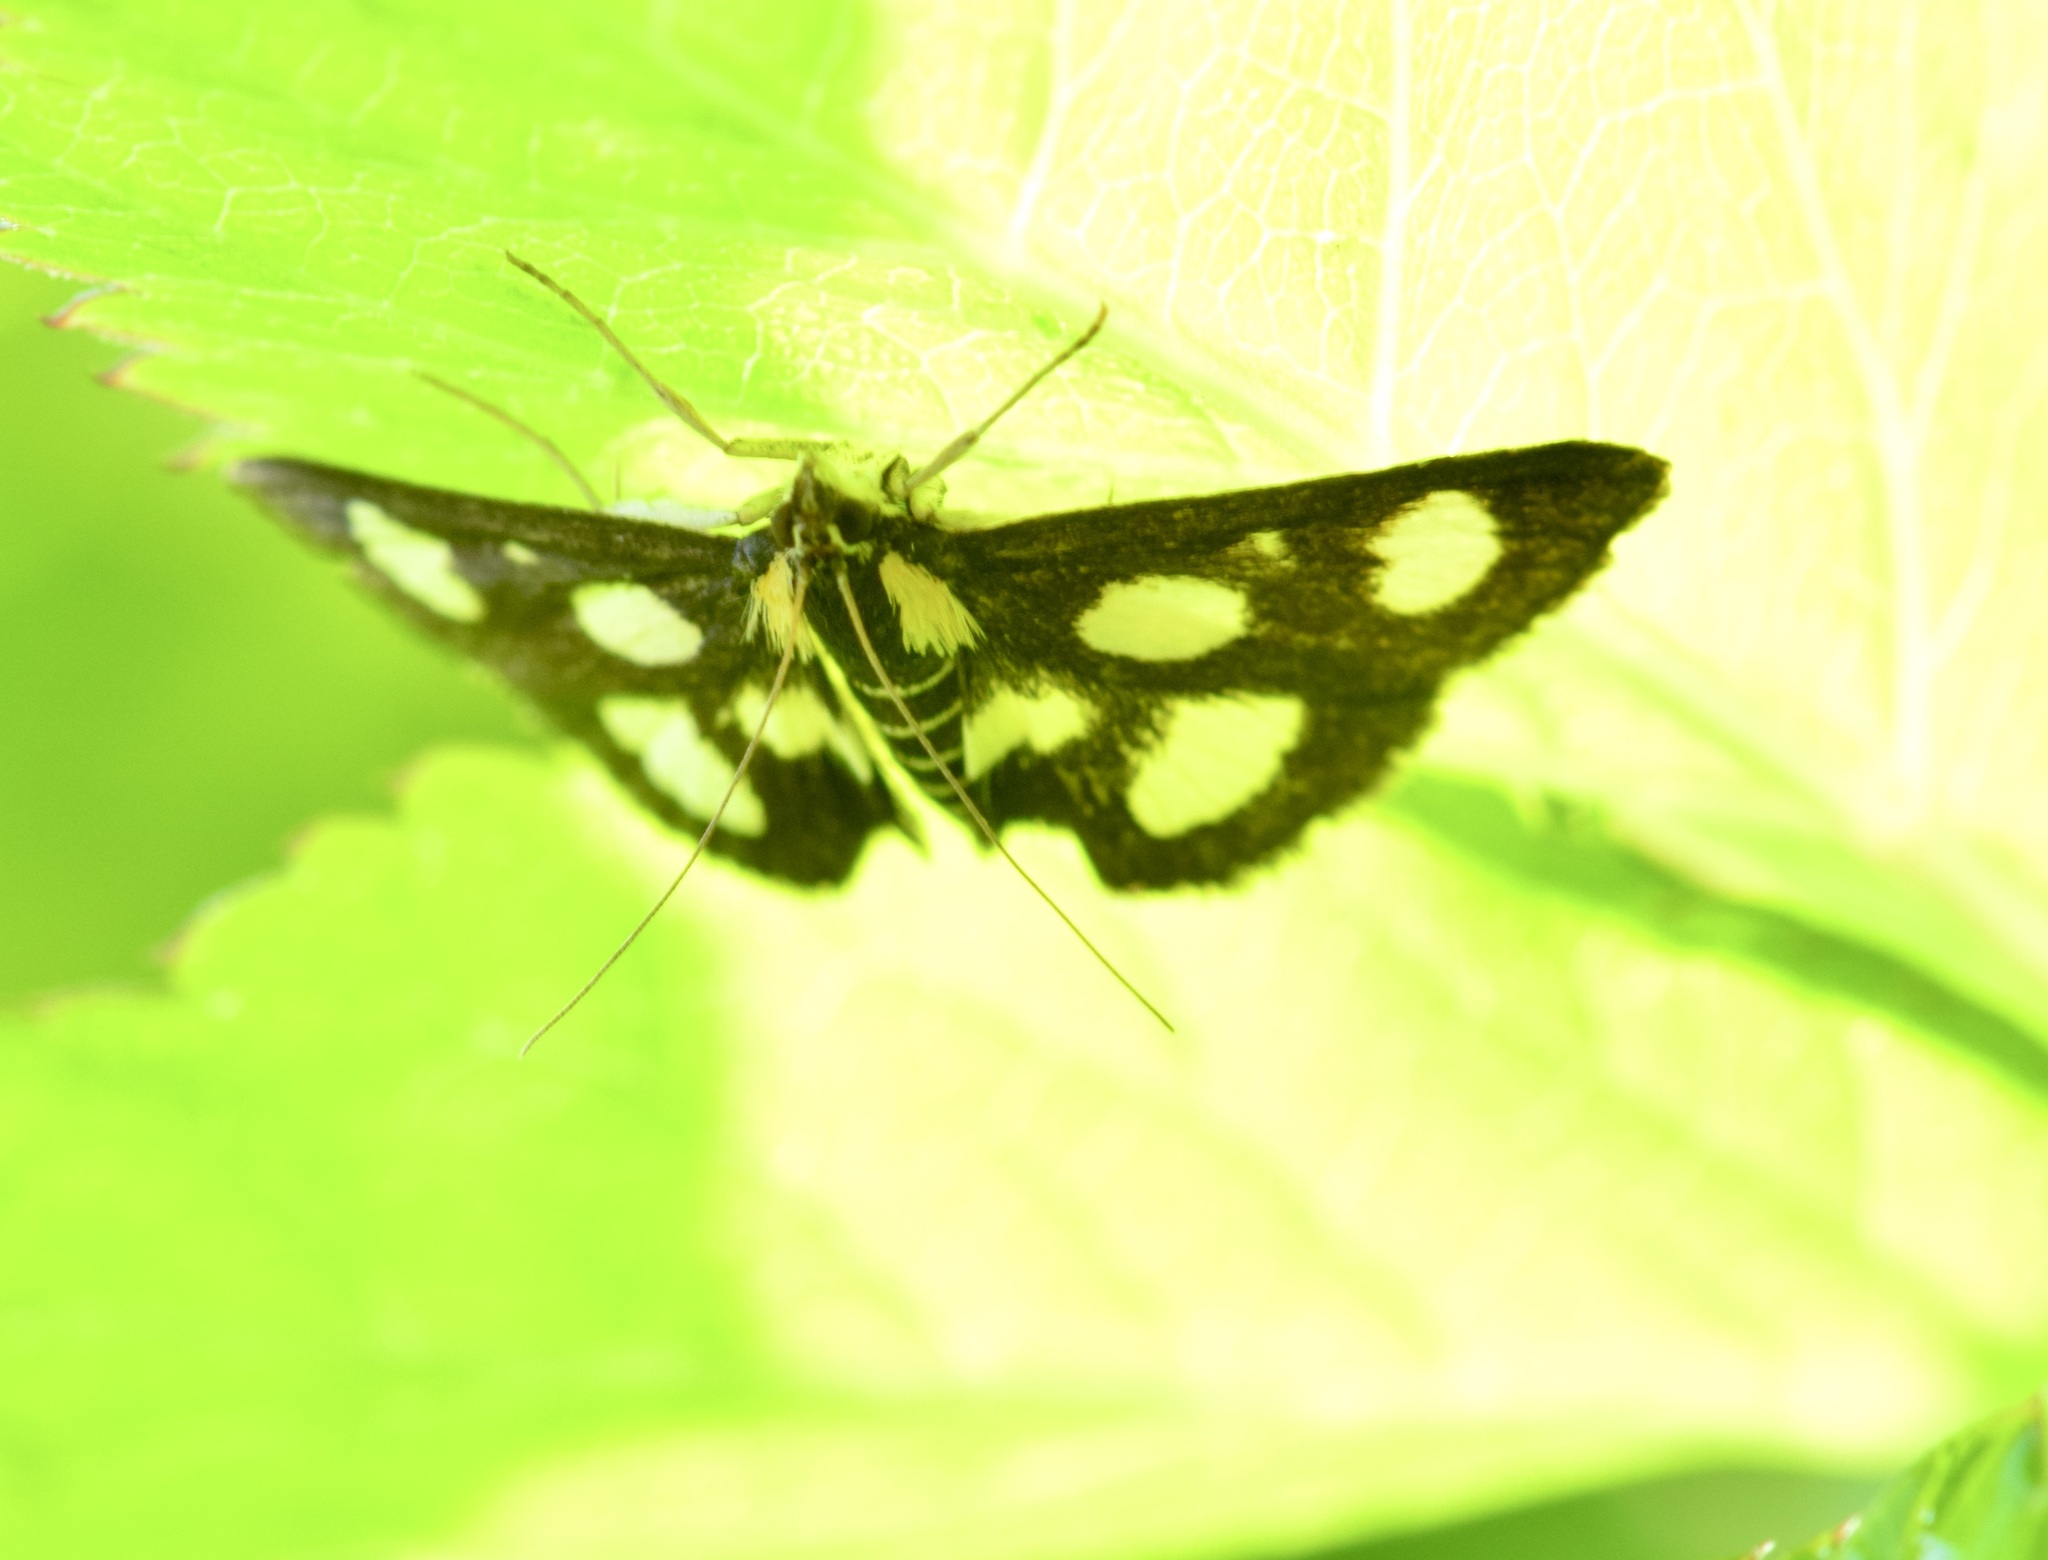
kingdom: Animalia
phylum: Arthropoda
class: Insecta
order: Lepidoptera
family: Crambidae
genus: Anania
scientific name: Anania funebris
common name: White-spotted sable moth
